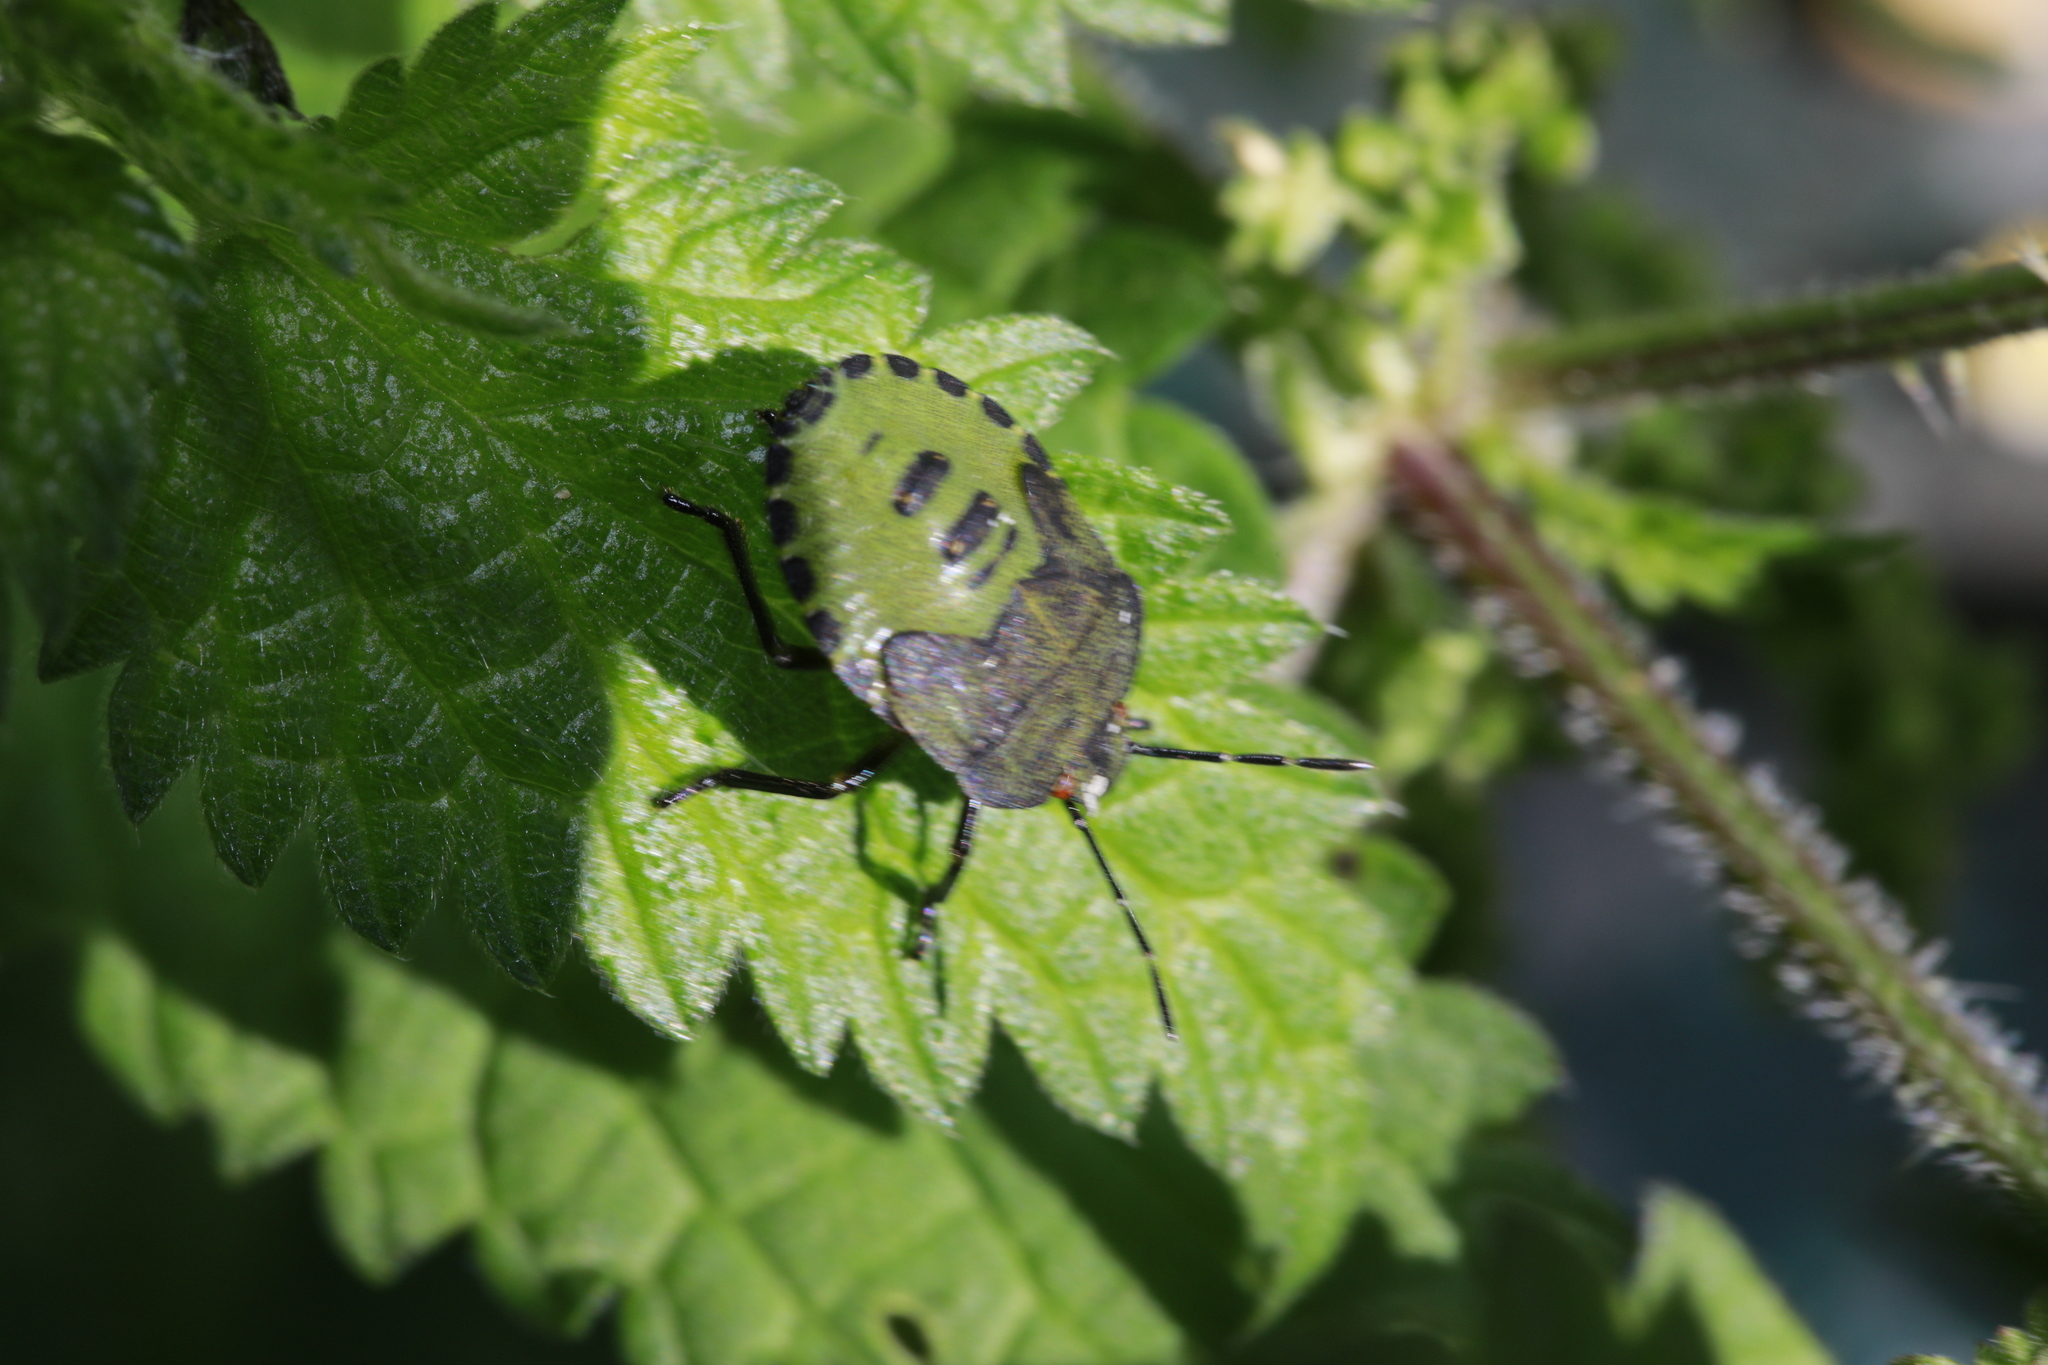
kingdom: Animalia
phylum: Arthropoda
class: Insecta
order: Hemiptera
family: Pentatomidae
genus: Palomena
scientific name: Palomena prasina
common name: Green shieldbug
